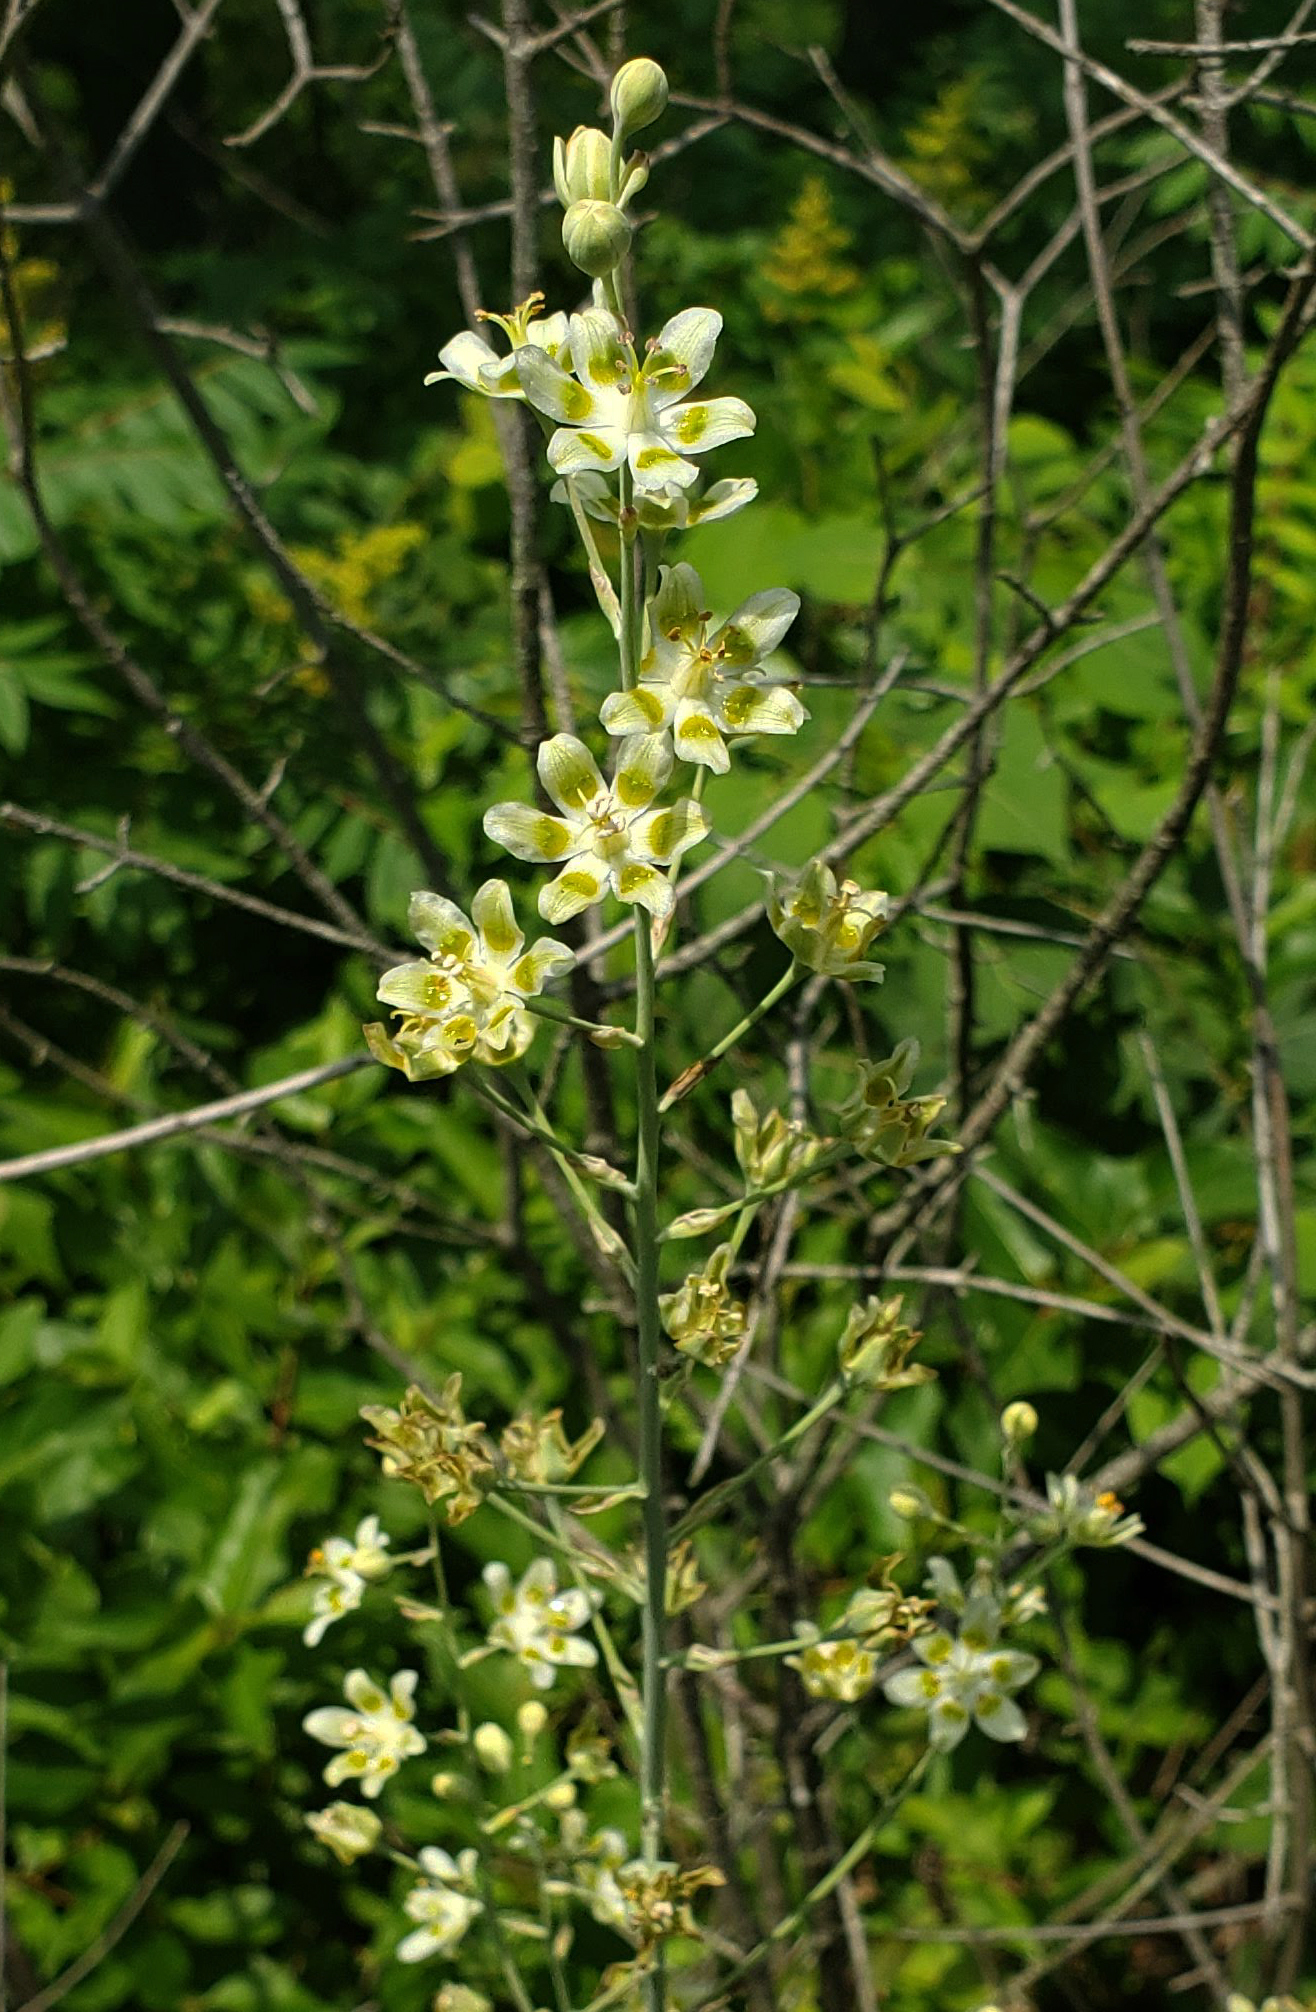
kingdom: Plantae
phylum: Tracheophyta
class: Liliopsida
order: Liliales
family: Melanthiaceae
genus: Anticlea
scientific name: Anticlea elegans
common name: Mountain death camas
